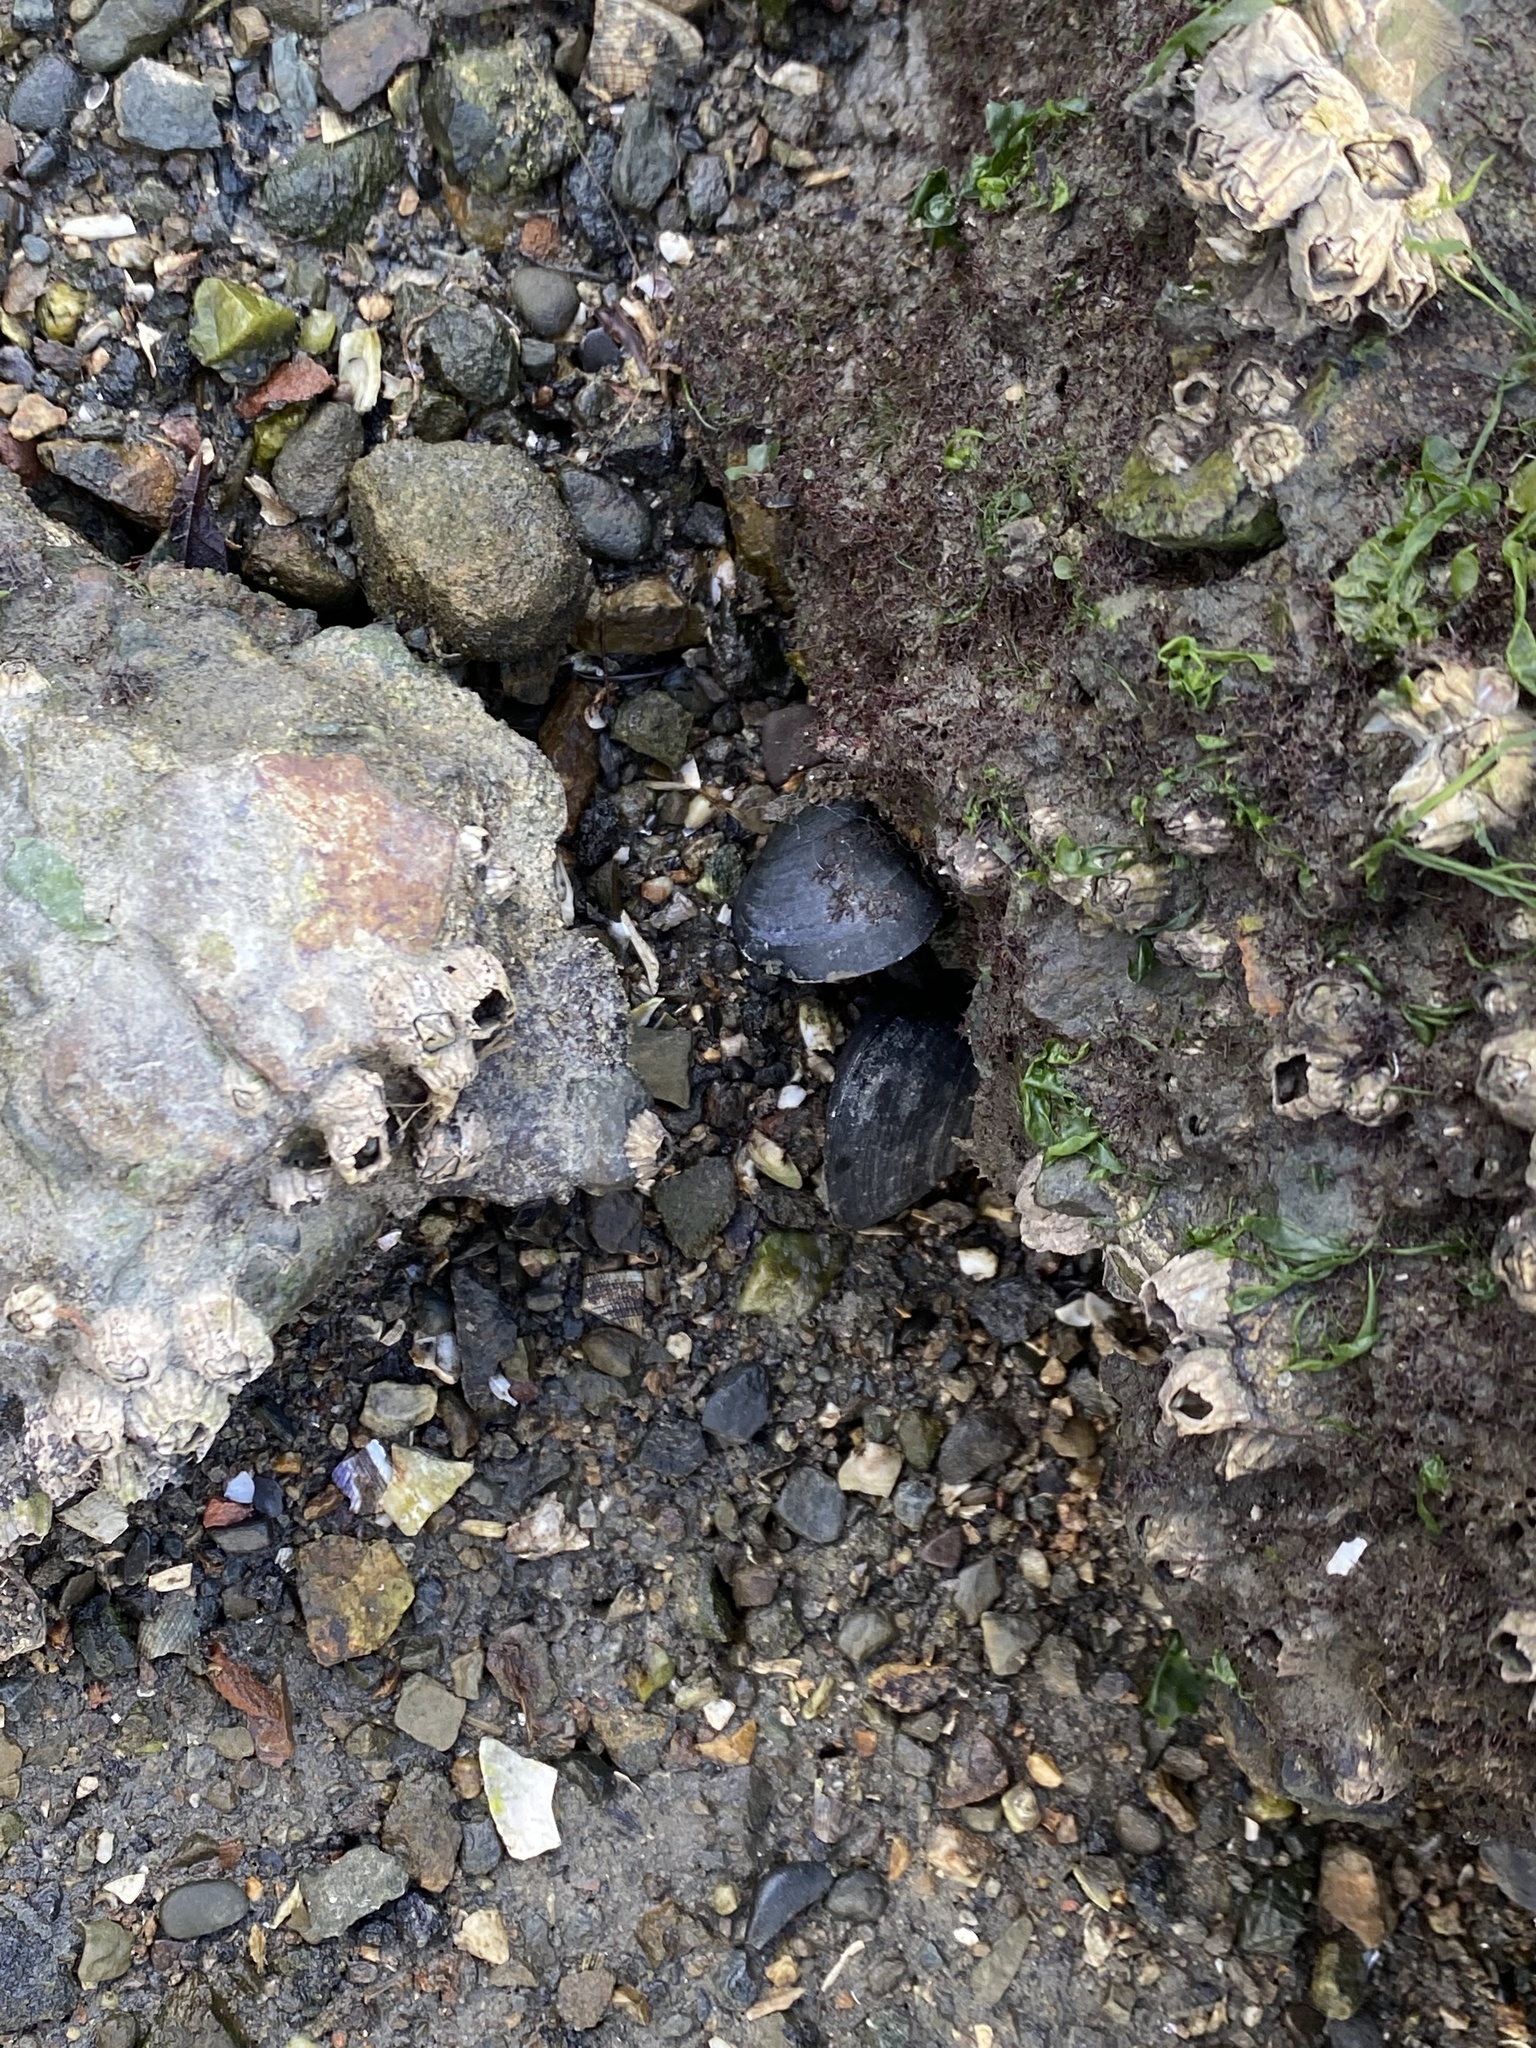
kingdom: Animalia
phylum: Mollusca
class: Bivalvia
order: Mytilida
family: Mytilidae
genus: Mytilus
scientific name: Mytilus
